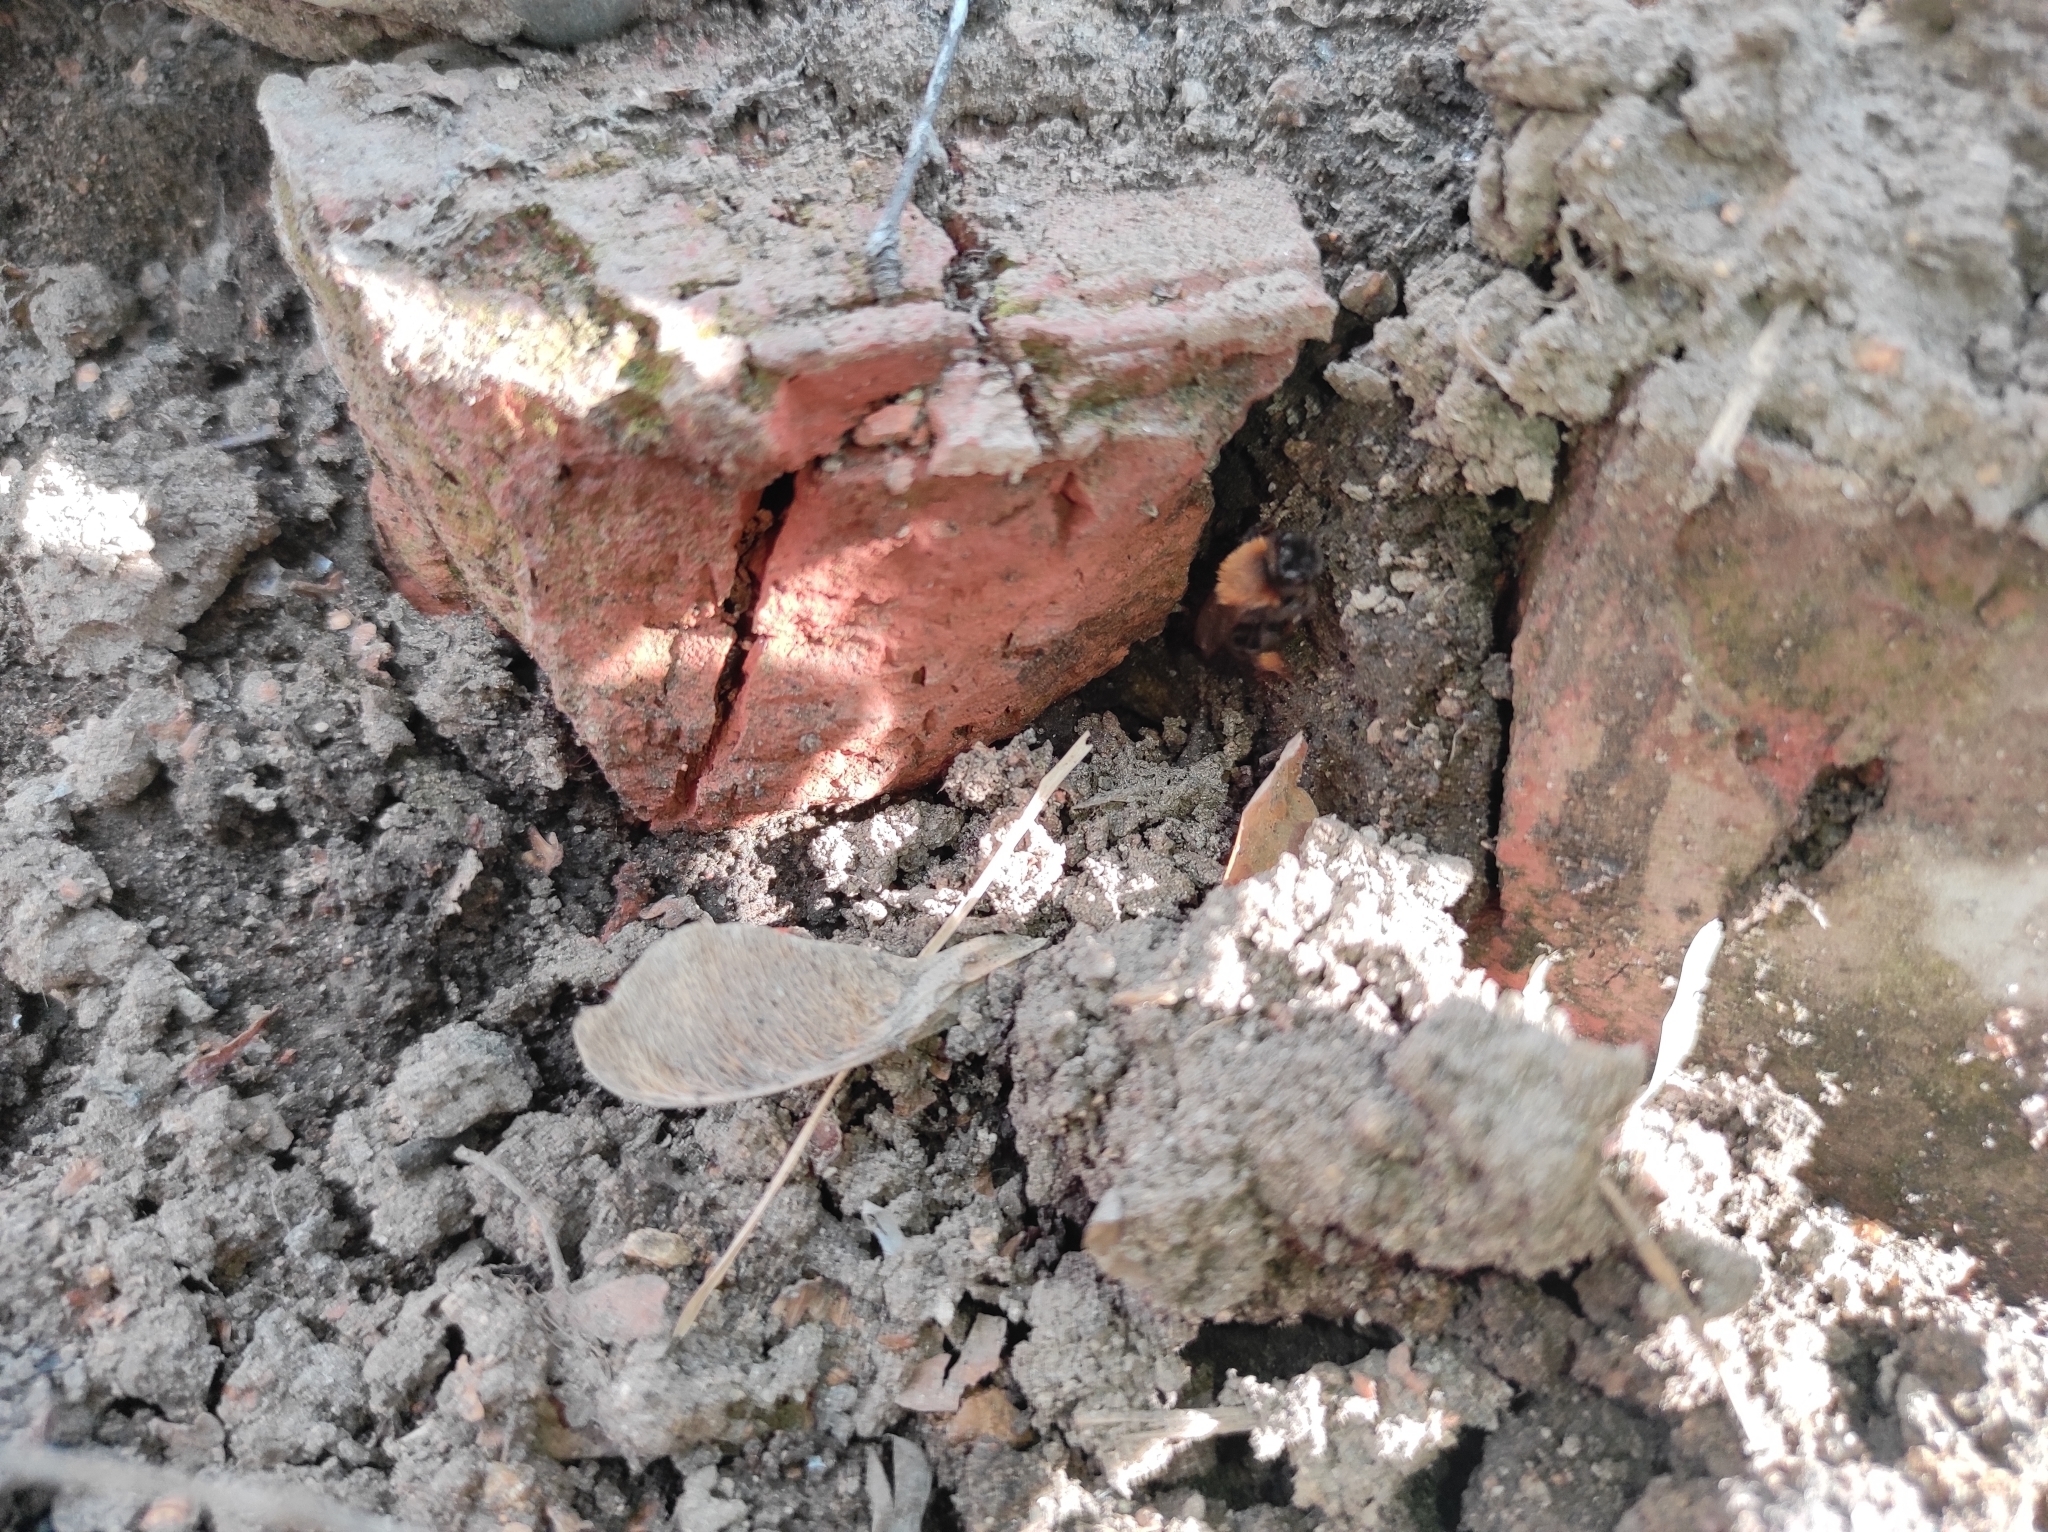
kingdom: Plantae
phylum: Tracheophyta
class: Magnoliopsida
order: Sapindales
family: Sapindaceae
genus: Acer
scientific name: Acer negundo
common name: Ashleaf maple
